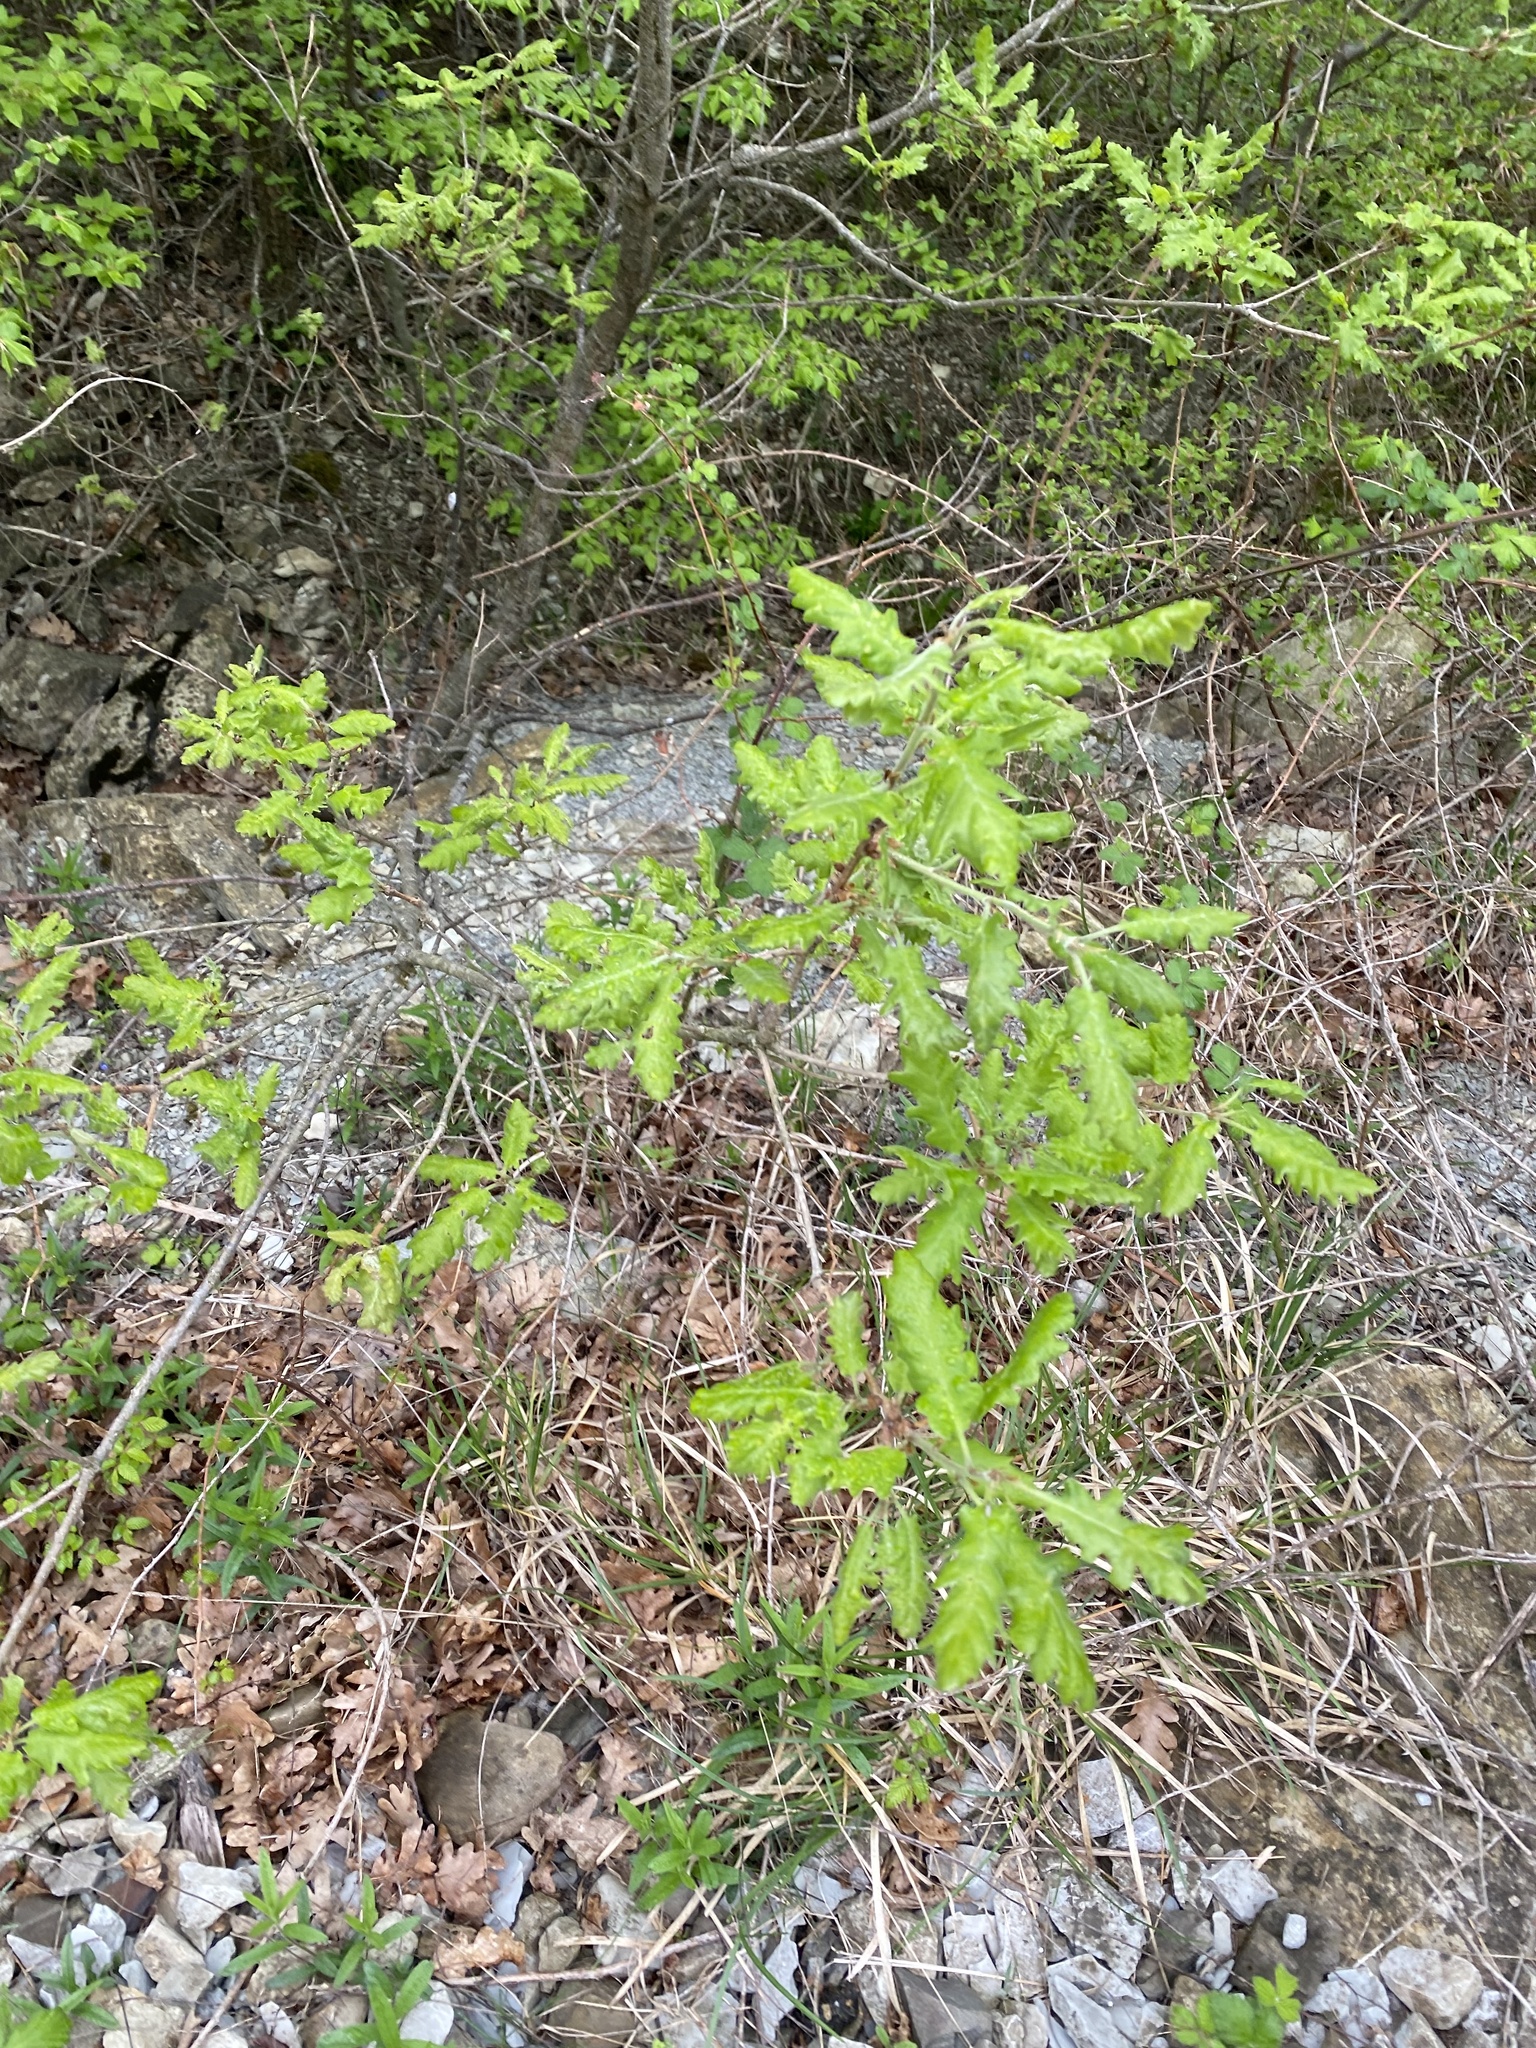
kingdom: Plantae
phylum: Tracheophyta
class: Magnoliopsida
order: Fagales
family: Fagaceae
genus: Quercus
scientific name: Quercus pubescens
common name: Downy oak
